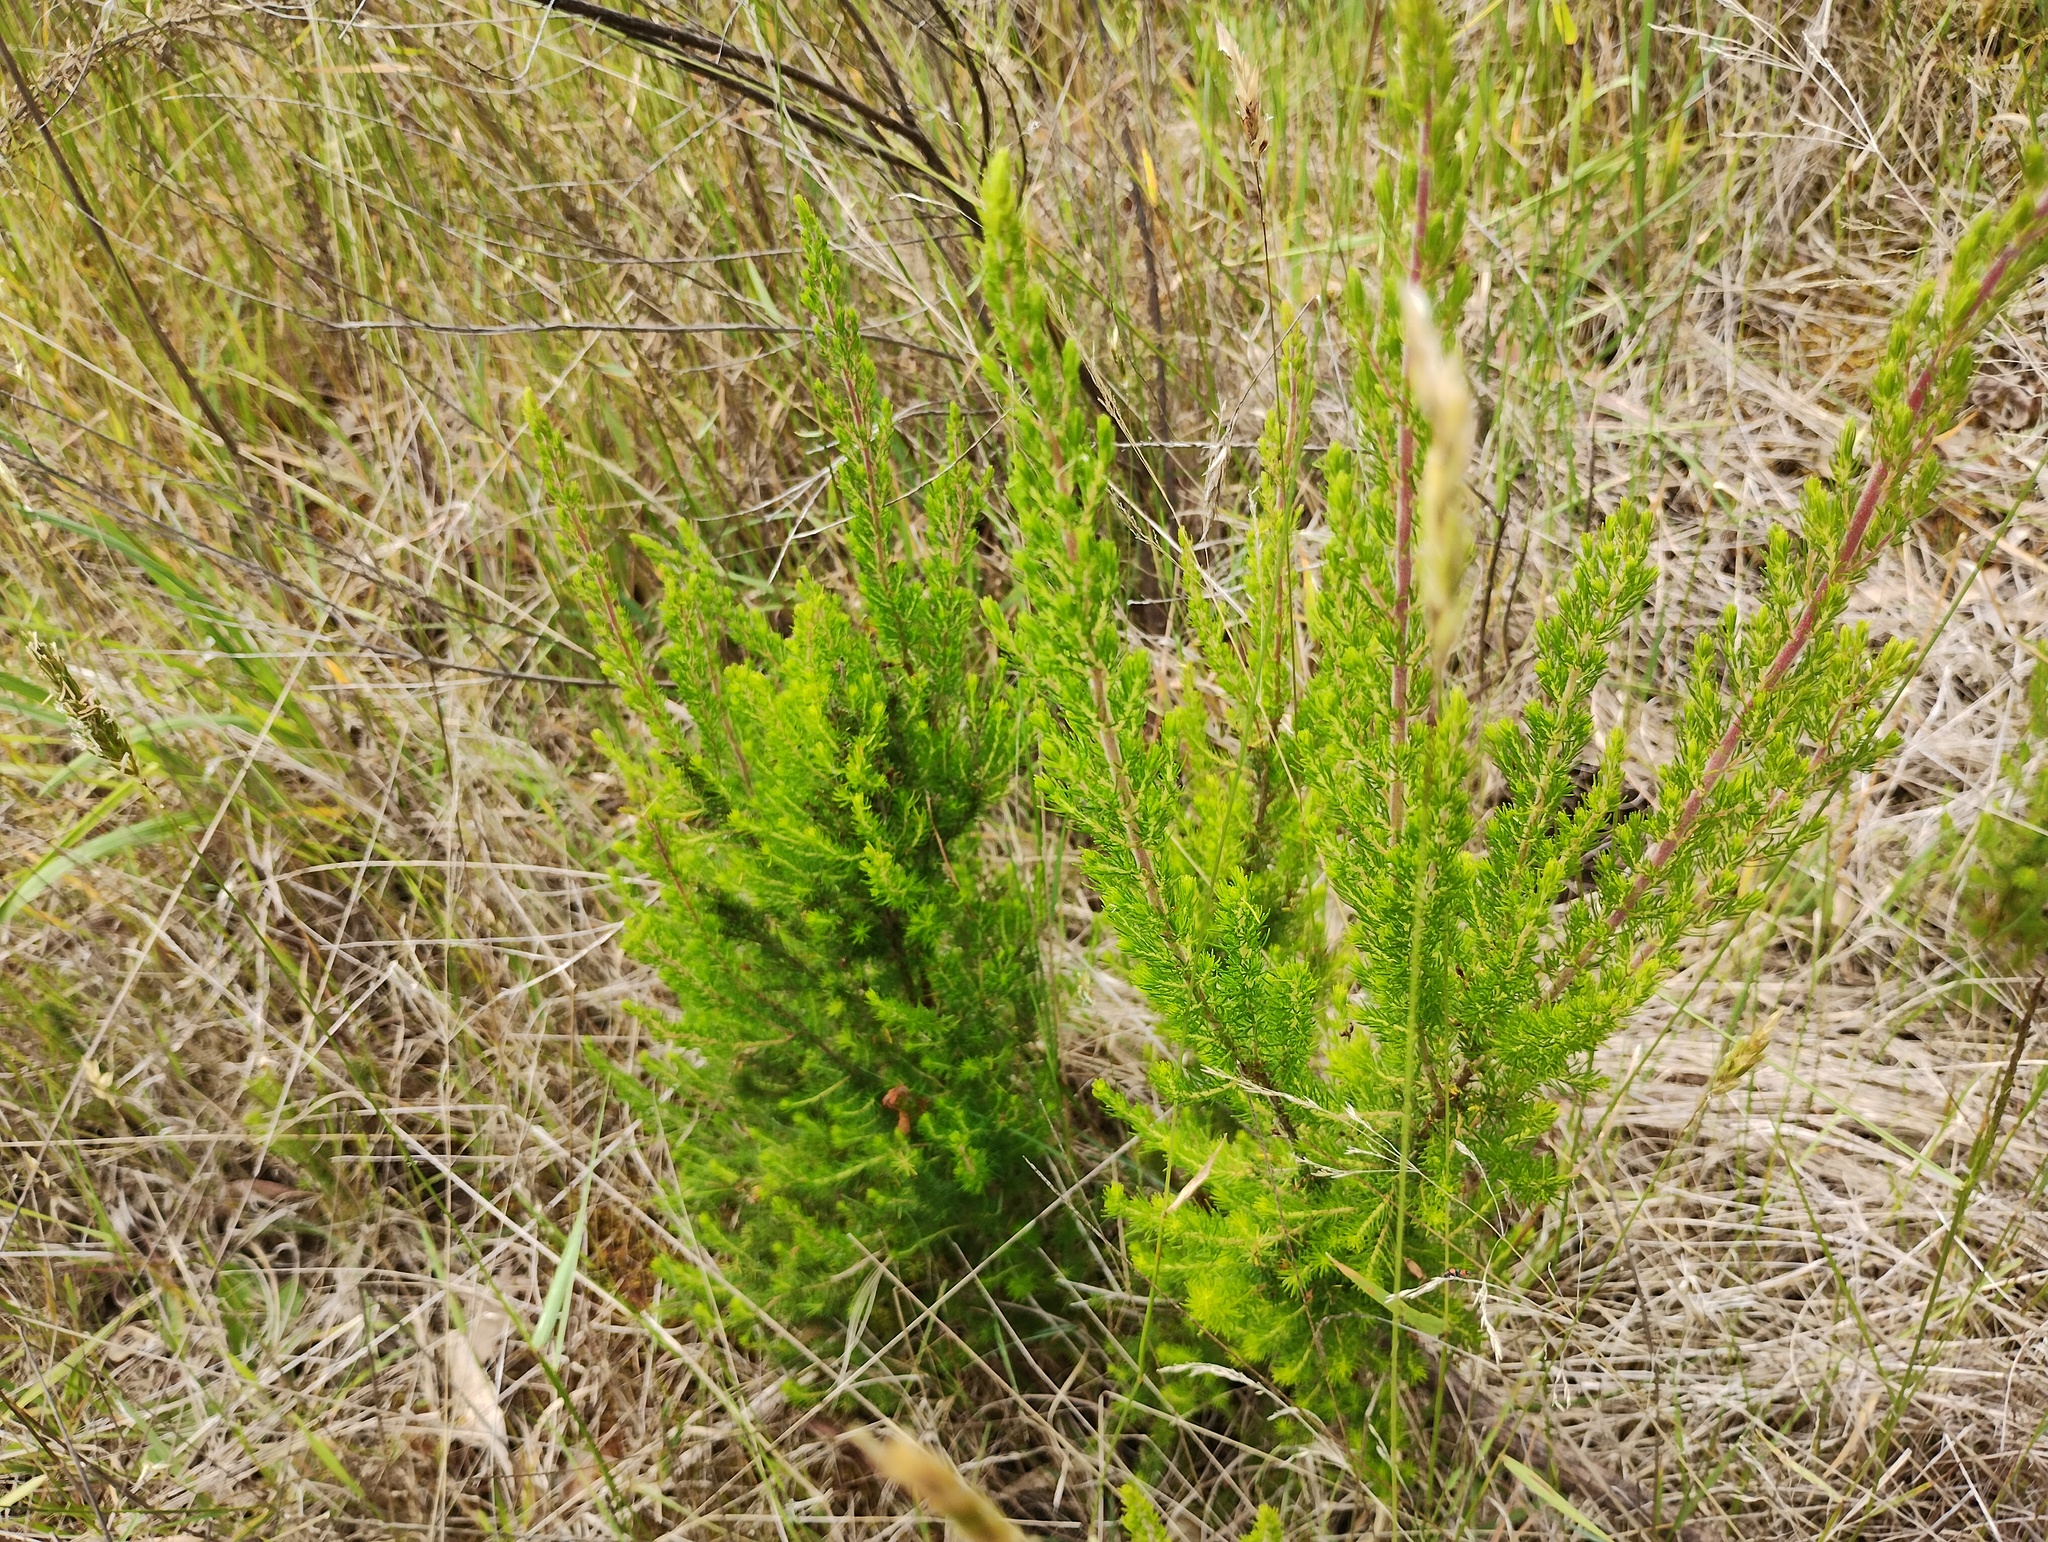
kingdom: Plantae
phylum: Tracheophyta
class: Magnoliopsida
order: Ericales
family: Ericaceae
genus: Erica
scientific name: Erica lusitanica
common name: Spanish heath
